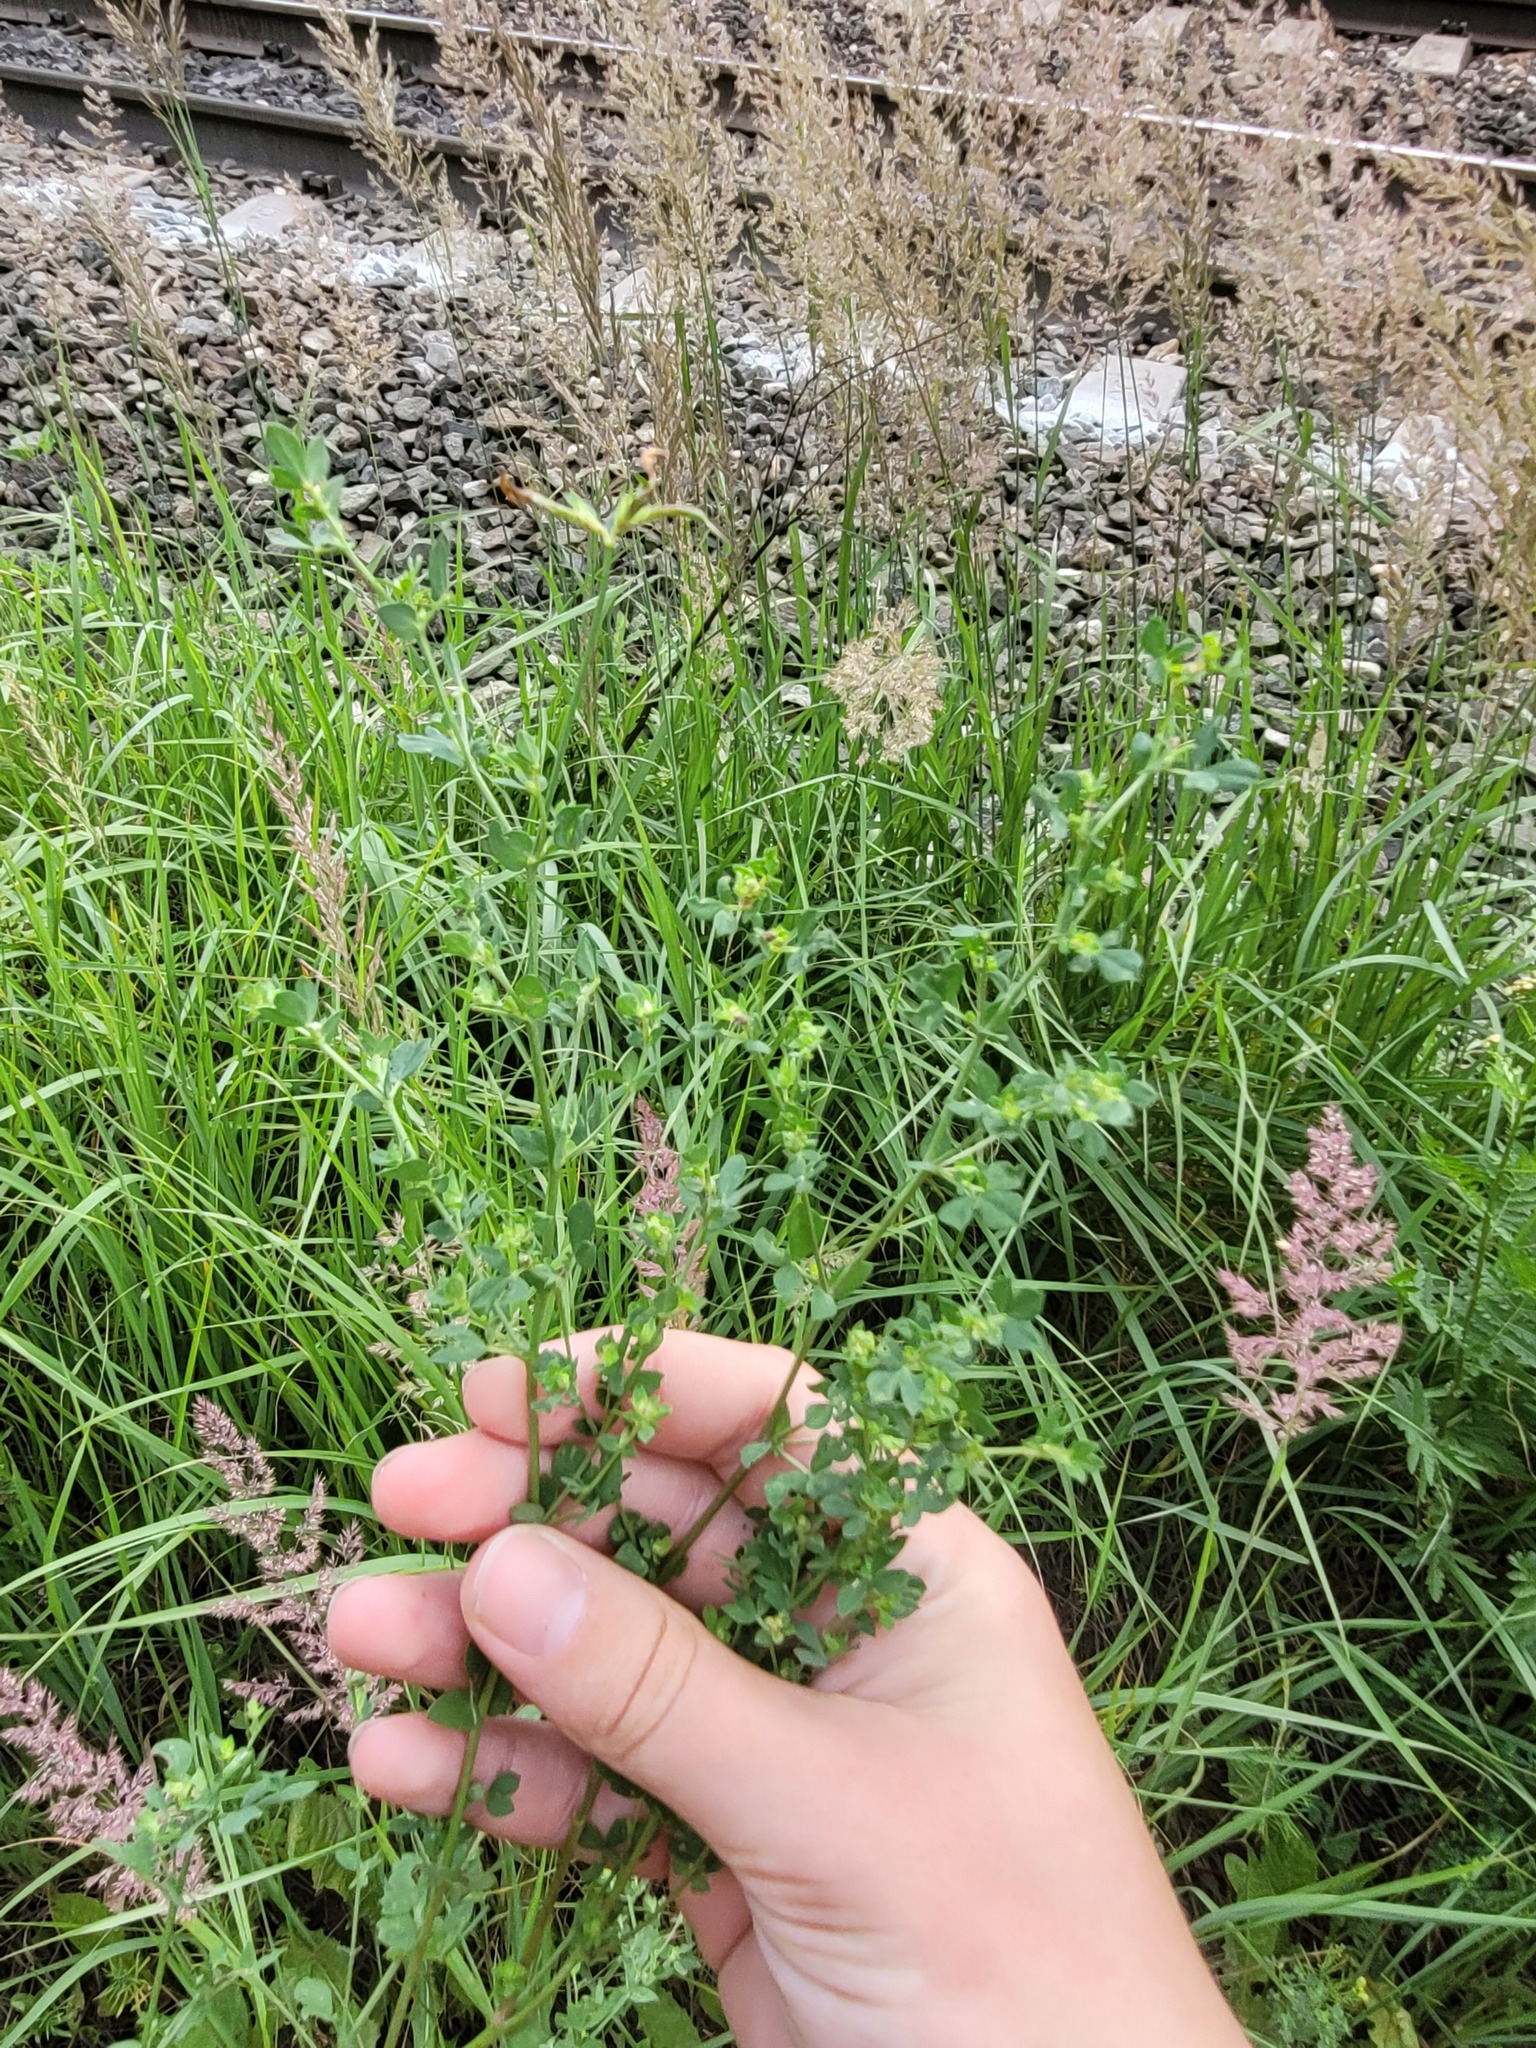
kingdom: Plantae
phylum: Tracheophyta
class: Magnoliopsida
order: Fabales
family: Fabaceae
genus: Lotus
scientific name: Lotus corniculatus
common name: Common bird's-foot-trefoil
